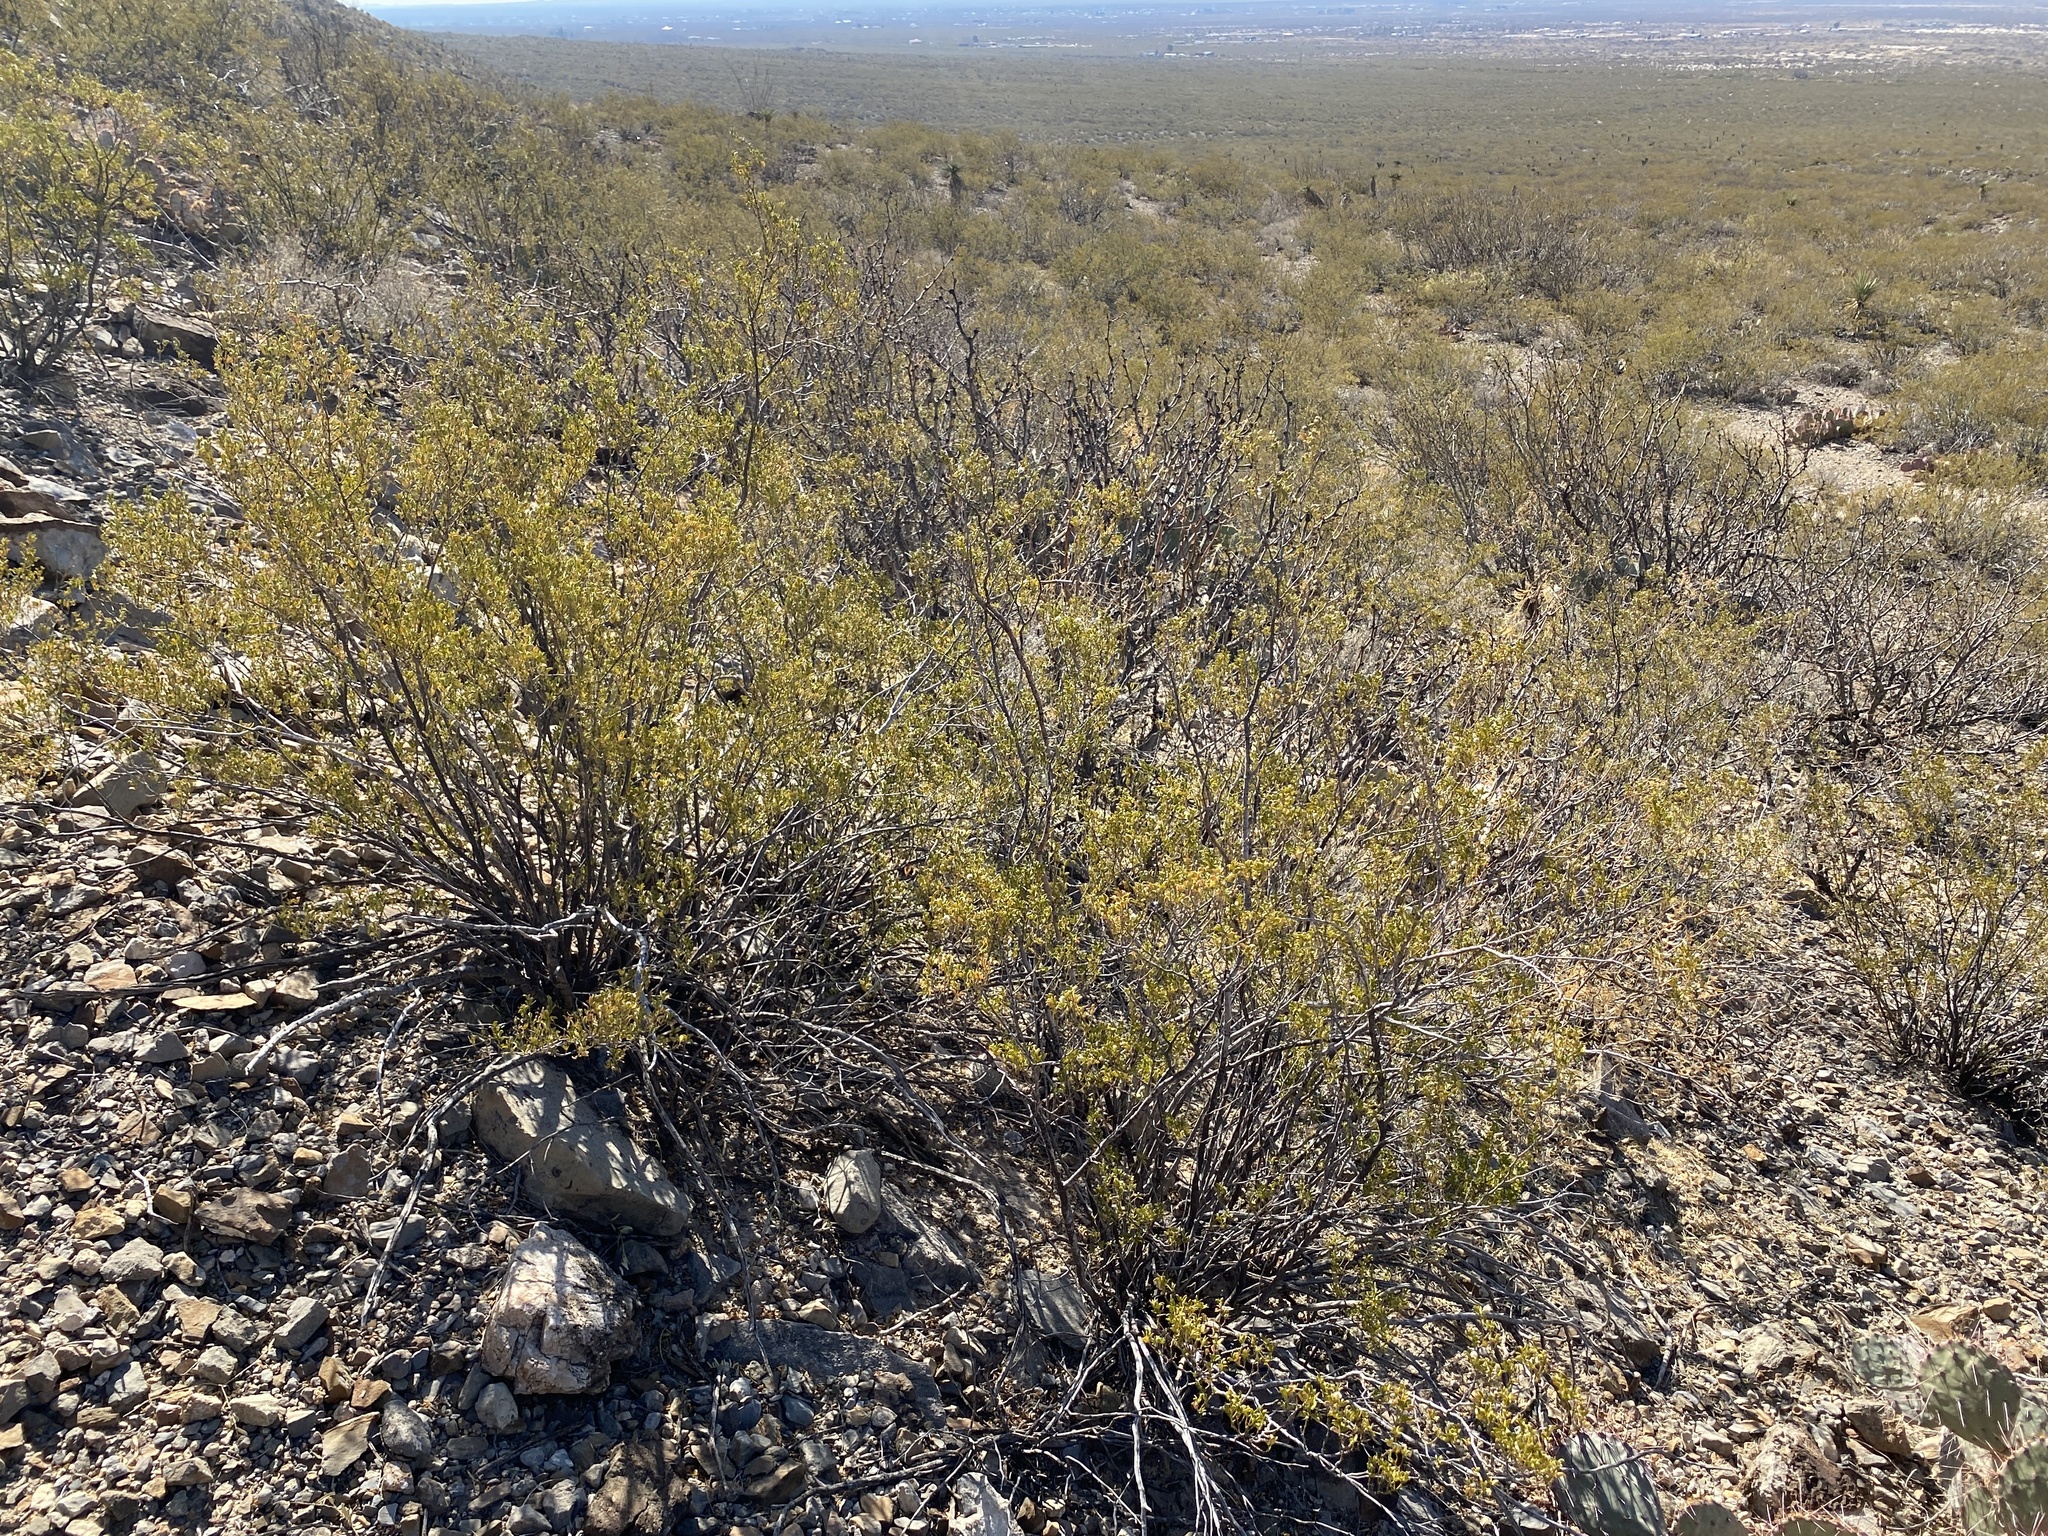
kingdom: Plantae
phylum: Tracheophyta
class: Magnoliopsida
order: Zygophyllales
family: Zygophyllaceae
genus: Larrea
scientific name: Larrea tridentata
